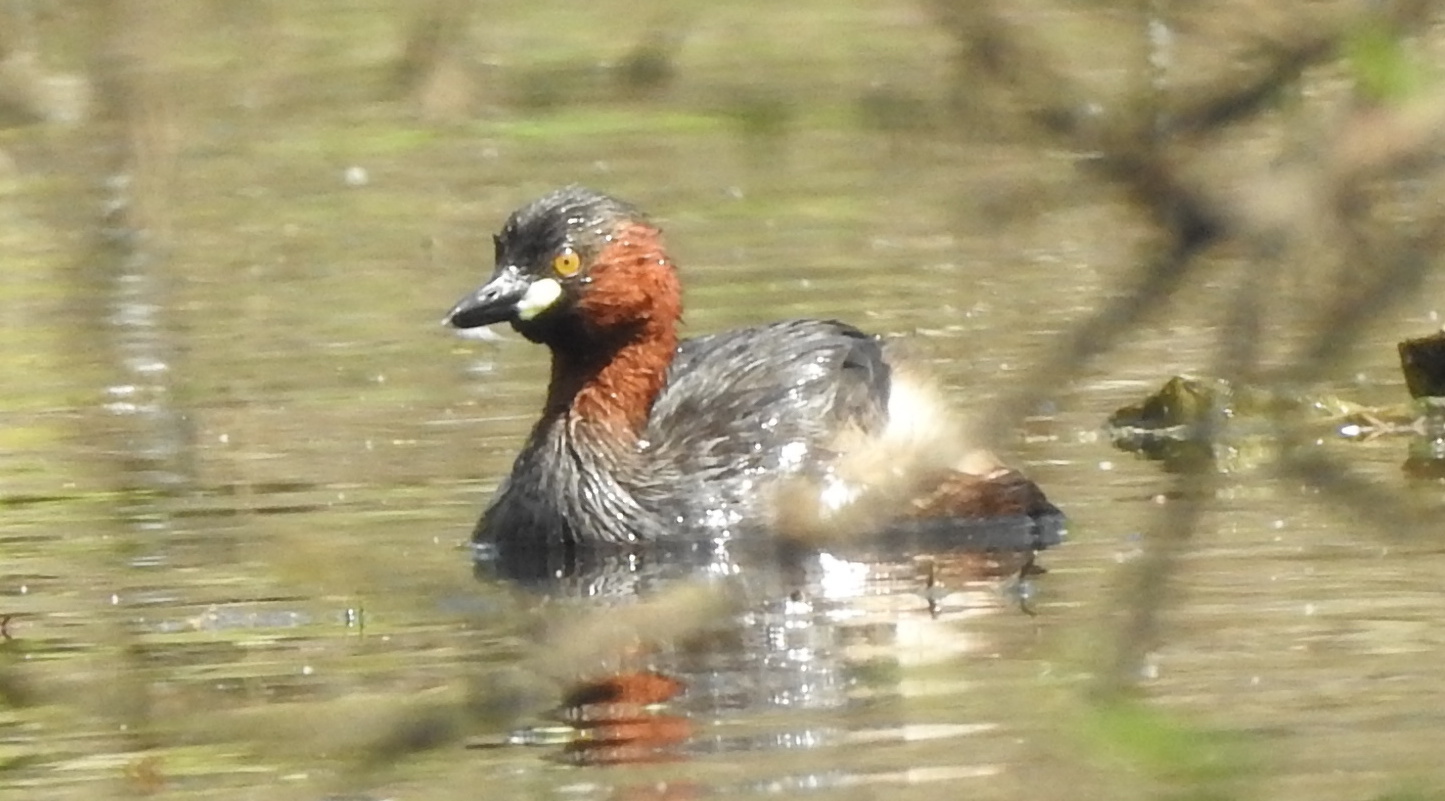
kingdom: Animalia
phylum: Chordata
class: Aves
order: Podicipediformes
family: Podicipedidae
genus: Tachybaptus
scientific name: Tachybaptus ruficollis
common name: Little grebe
